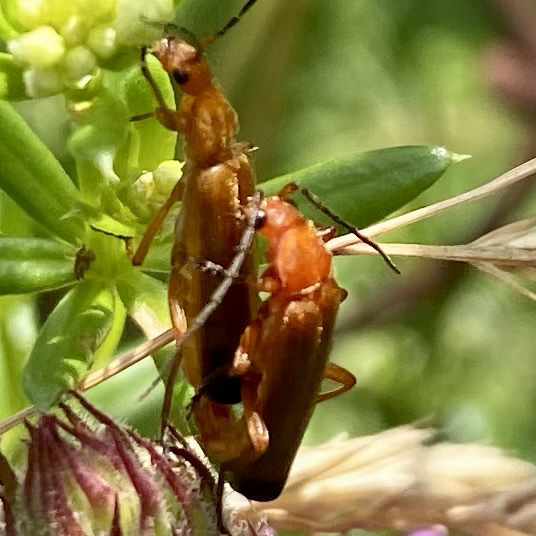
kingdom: Animalia
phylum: Arthropoda
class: Insecta
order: Coleoptera
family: Cantharidae
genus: Rhagonycha
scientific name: Rhagonycha fulva
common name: Common red soldier beetle
